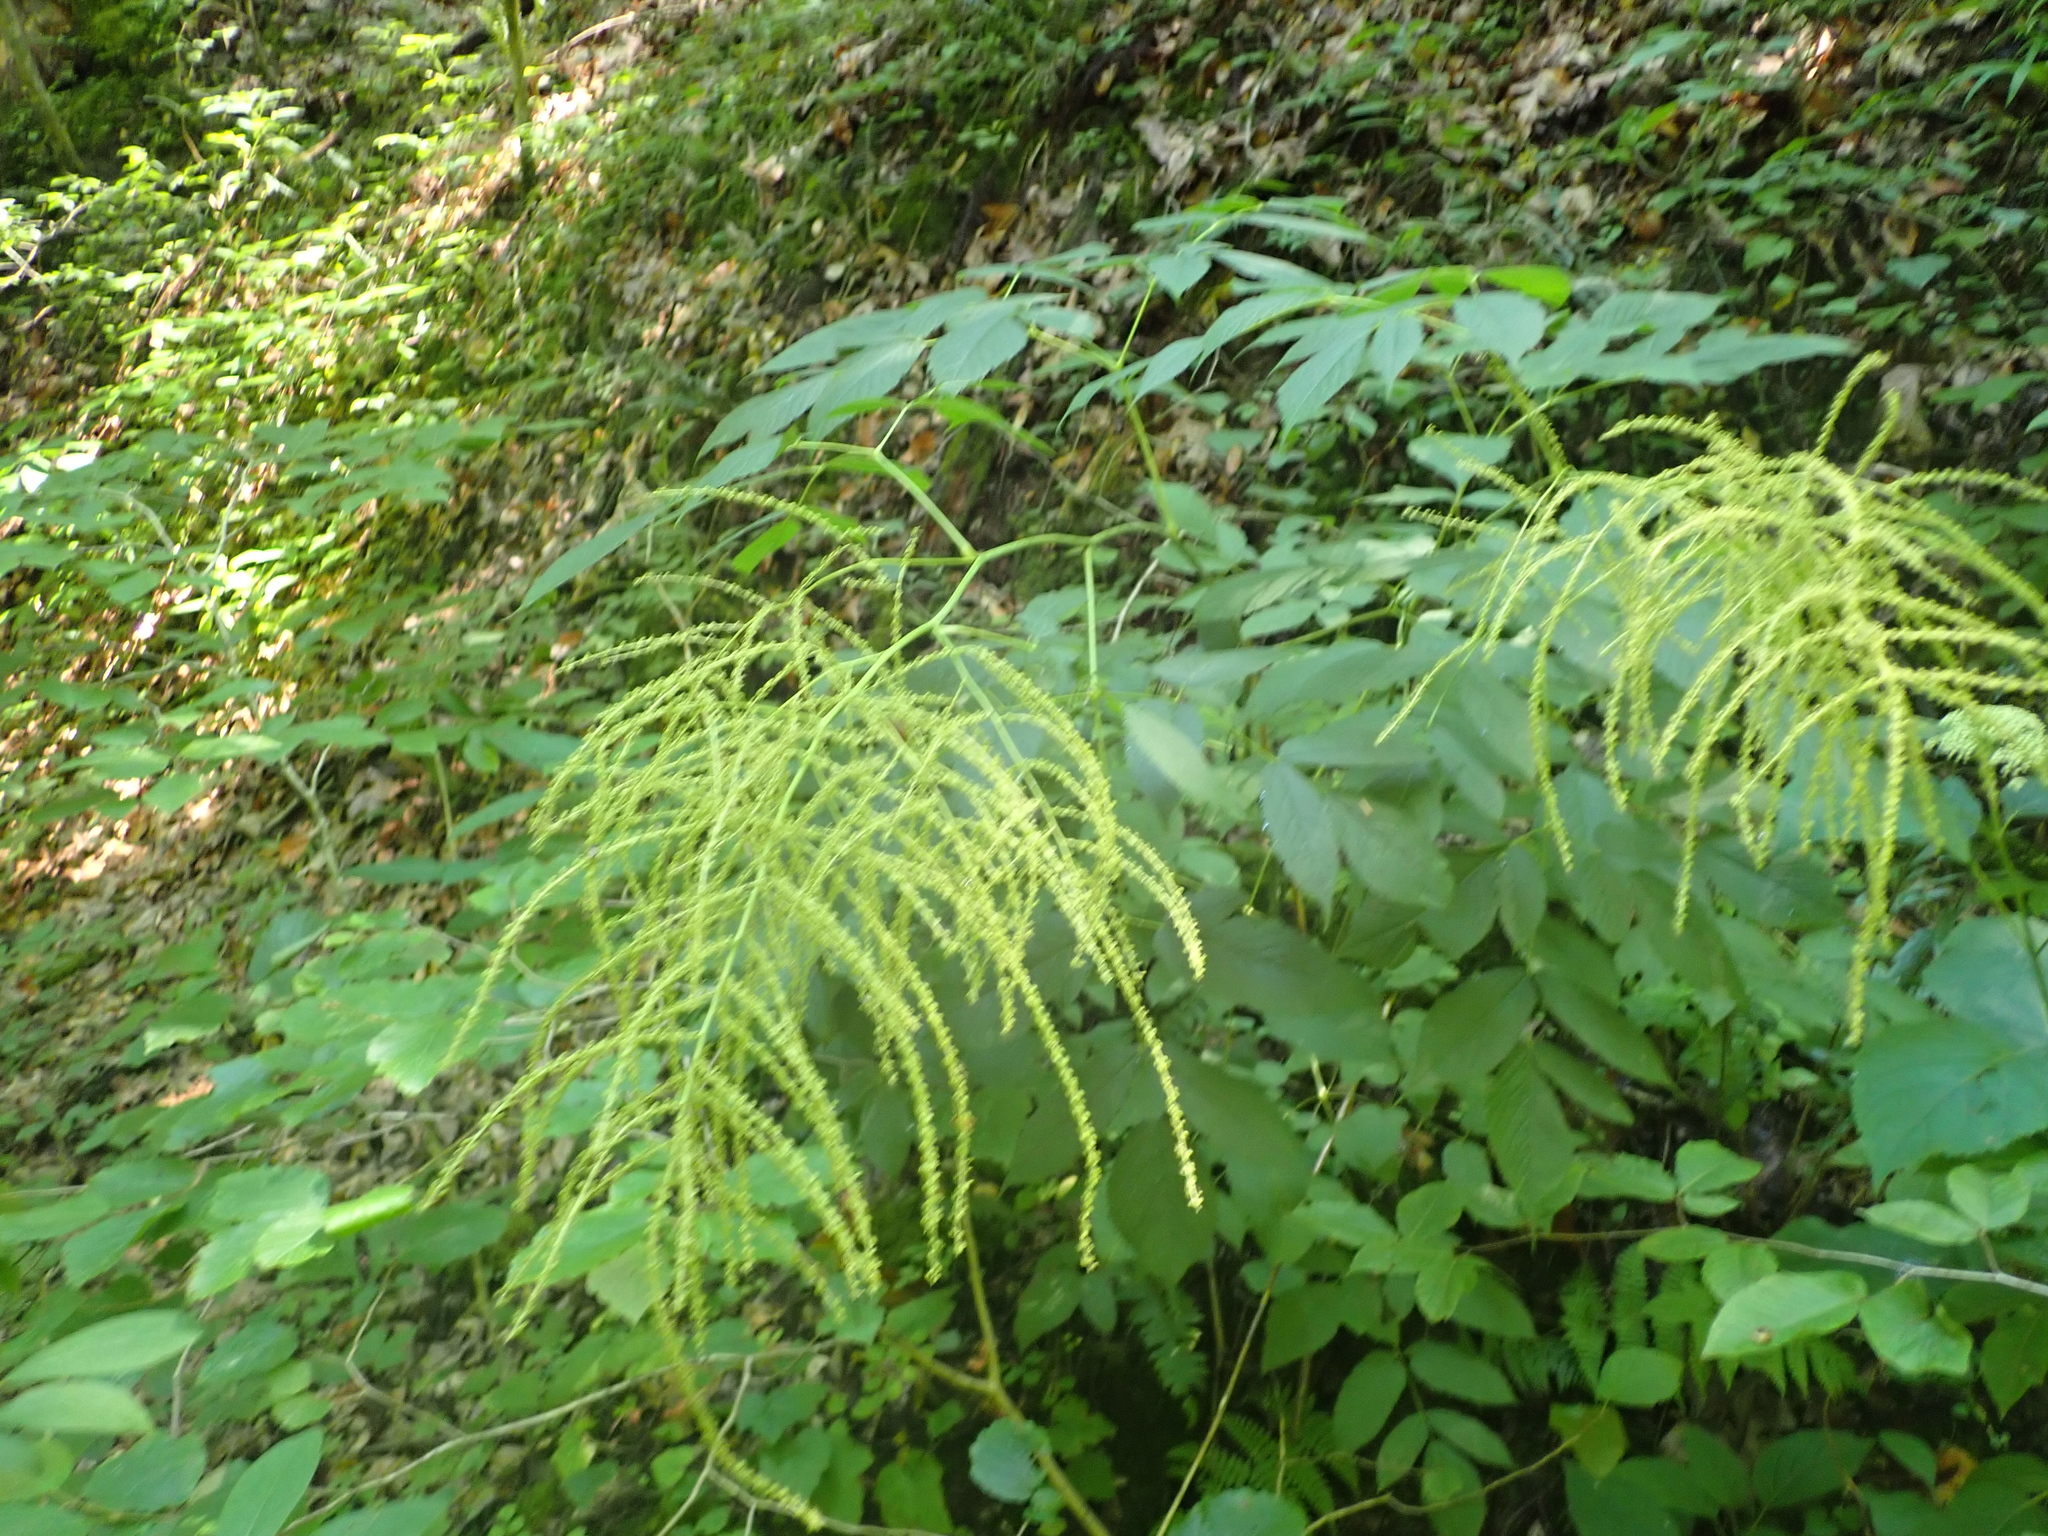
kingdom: Plantae
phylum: Tracheophyta
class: Magnoliopsida
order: Rosales
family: Rosaceae
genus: Aruncus
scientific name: Aruncus dioicus
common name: Buck's-beard
